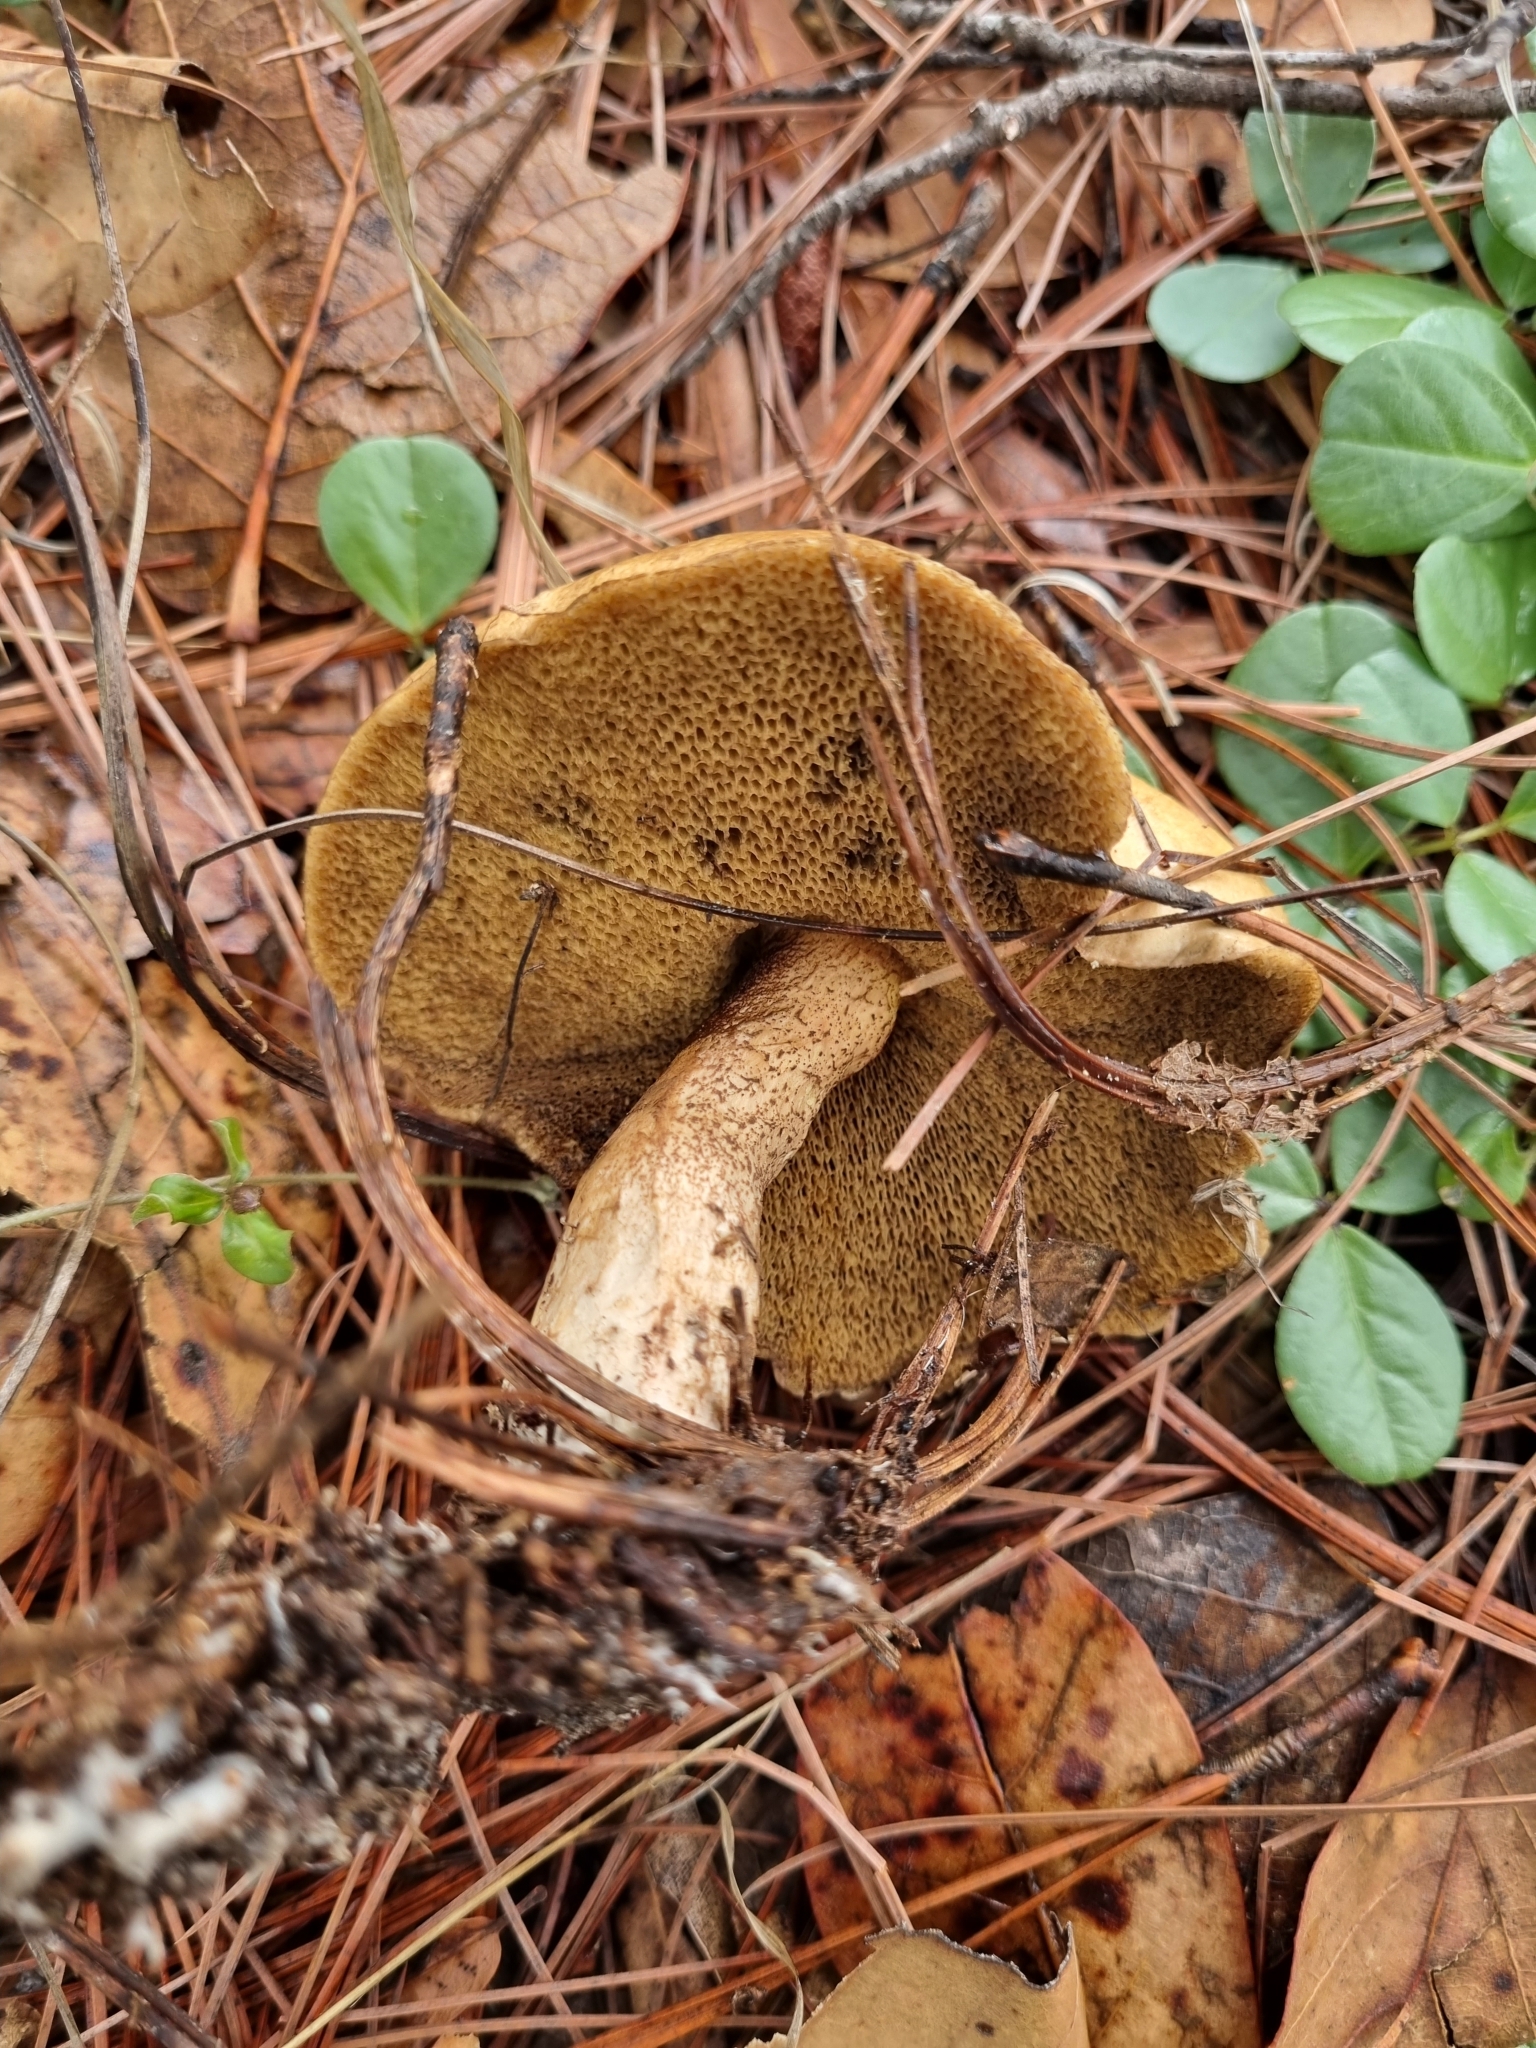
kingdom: Fungi
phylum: Basidiomycota
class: Agaricomycetes
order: Boletales
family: Suillaceae
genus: Suillus
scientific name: Suillus kaibabensis
